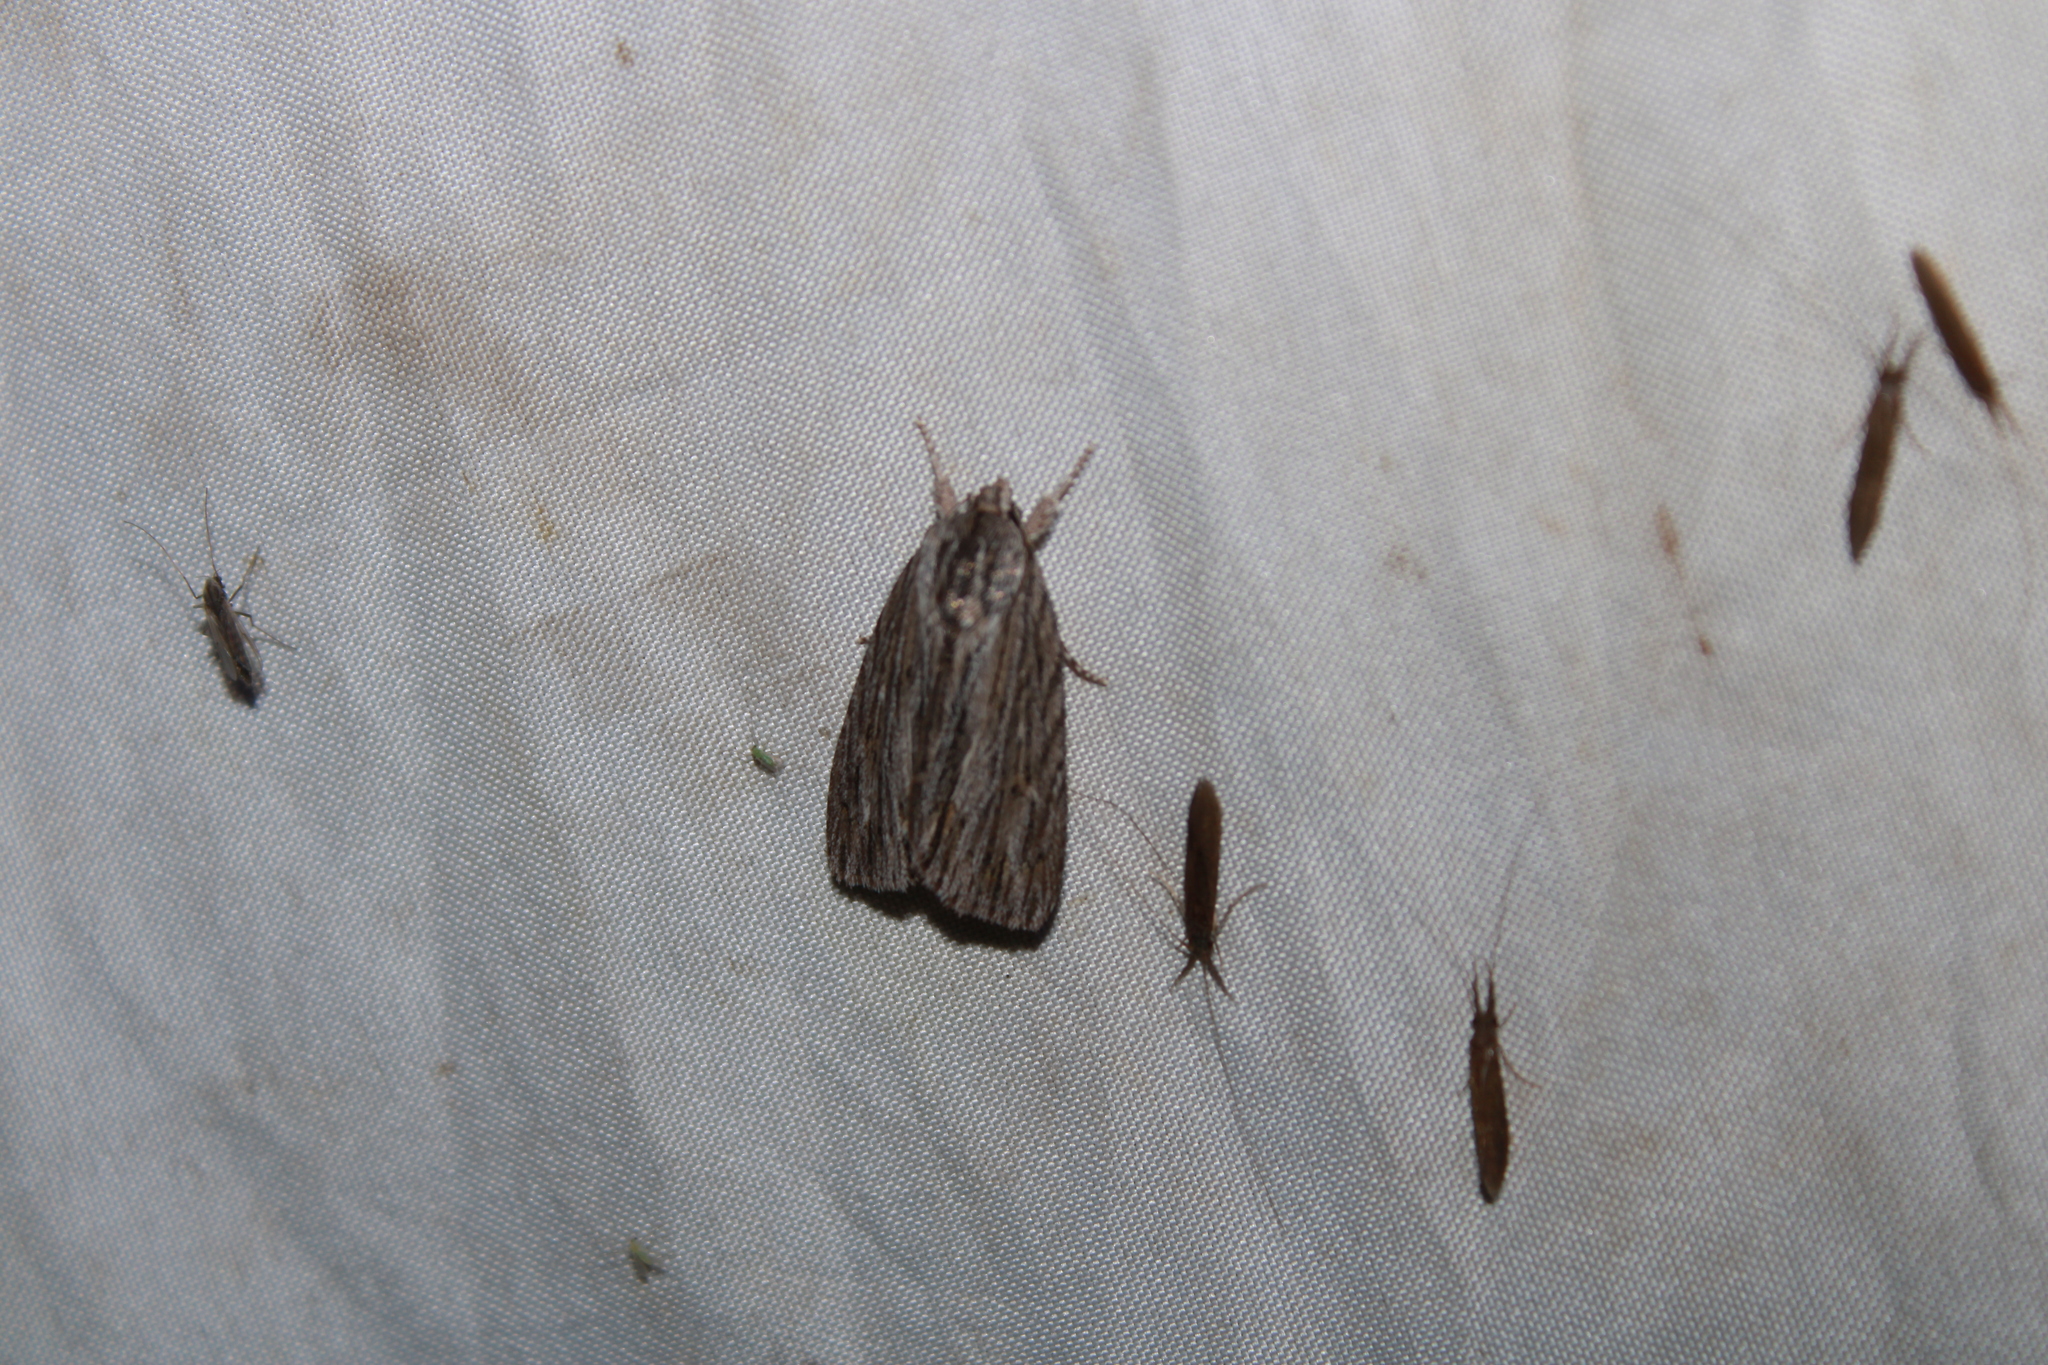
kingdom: Animalia
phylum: Arthropoda
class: Insecta
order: Lepidoptera
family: Noctuidae
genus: Acronicta
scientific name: Acronicta lithospila
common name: Streaked dagger
